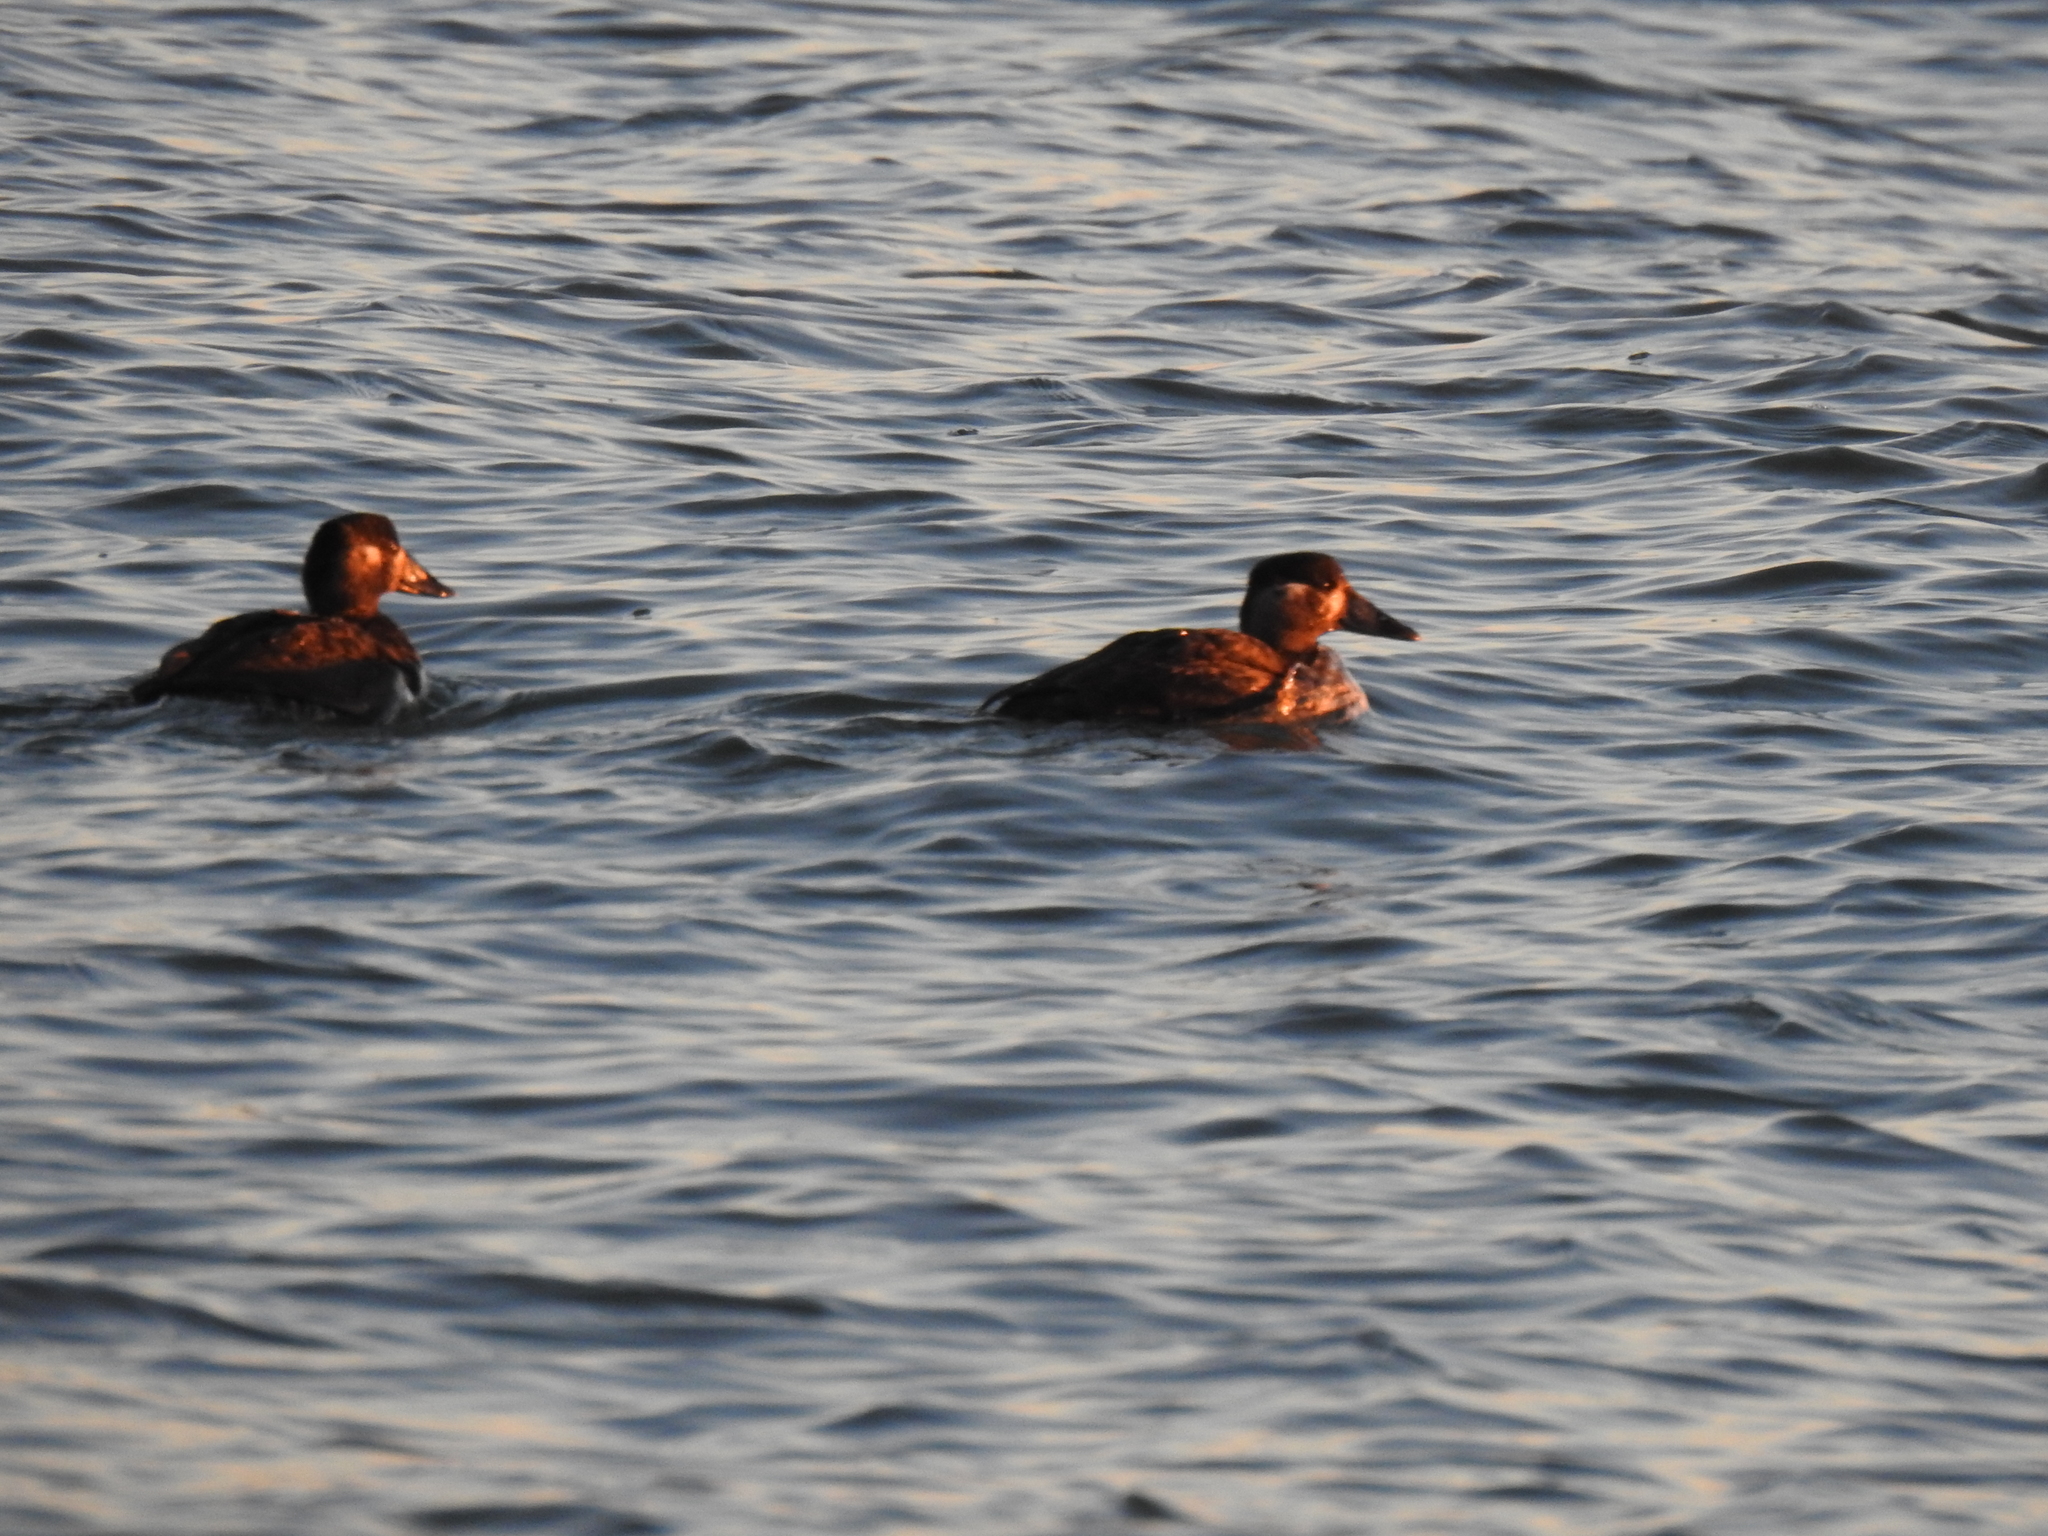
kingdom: Animalia
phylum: Chordata
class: Aves
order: Anseriformes
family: Anatidae
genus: Melanitta
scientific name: Melanitta perspicillata
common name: Surf scoter
